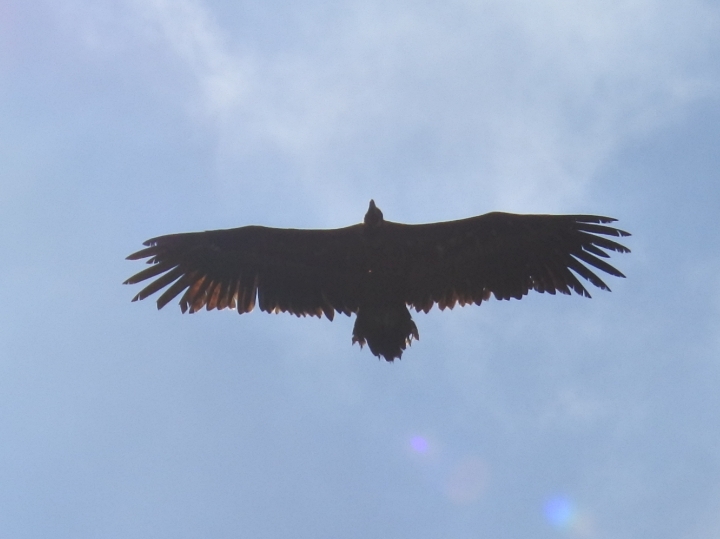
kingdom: Animalia
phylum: Chordata
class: Aves
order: Accipitriformes
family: Accipitridae
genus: Aegypius
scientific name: Aegypius monachus
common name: Cinereous vulture
